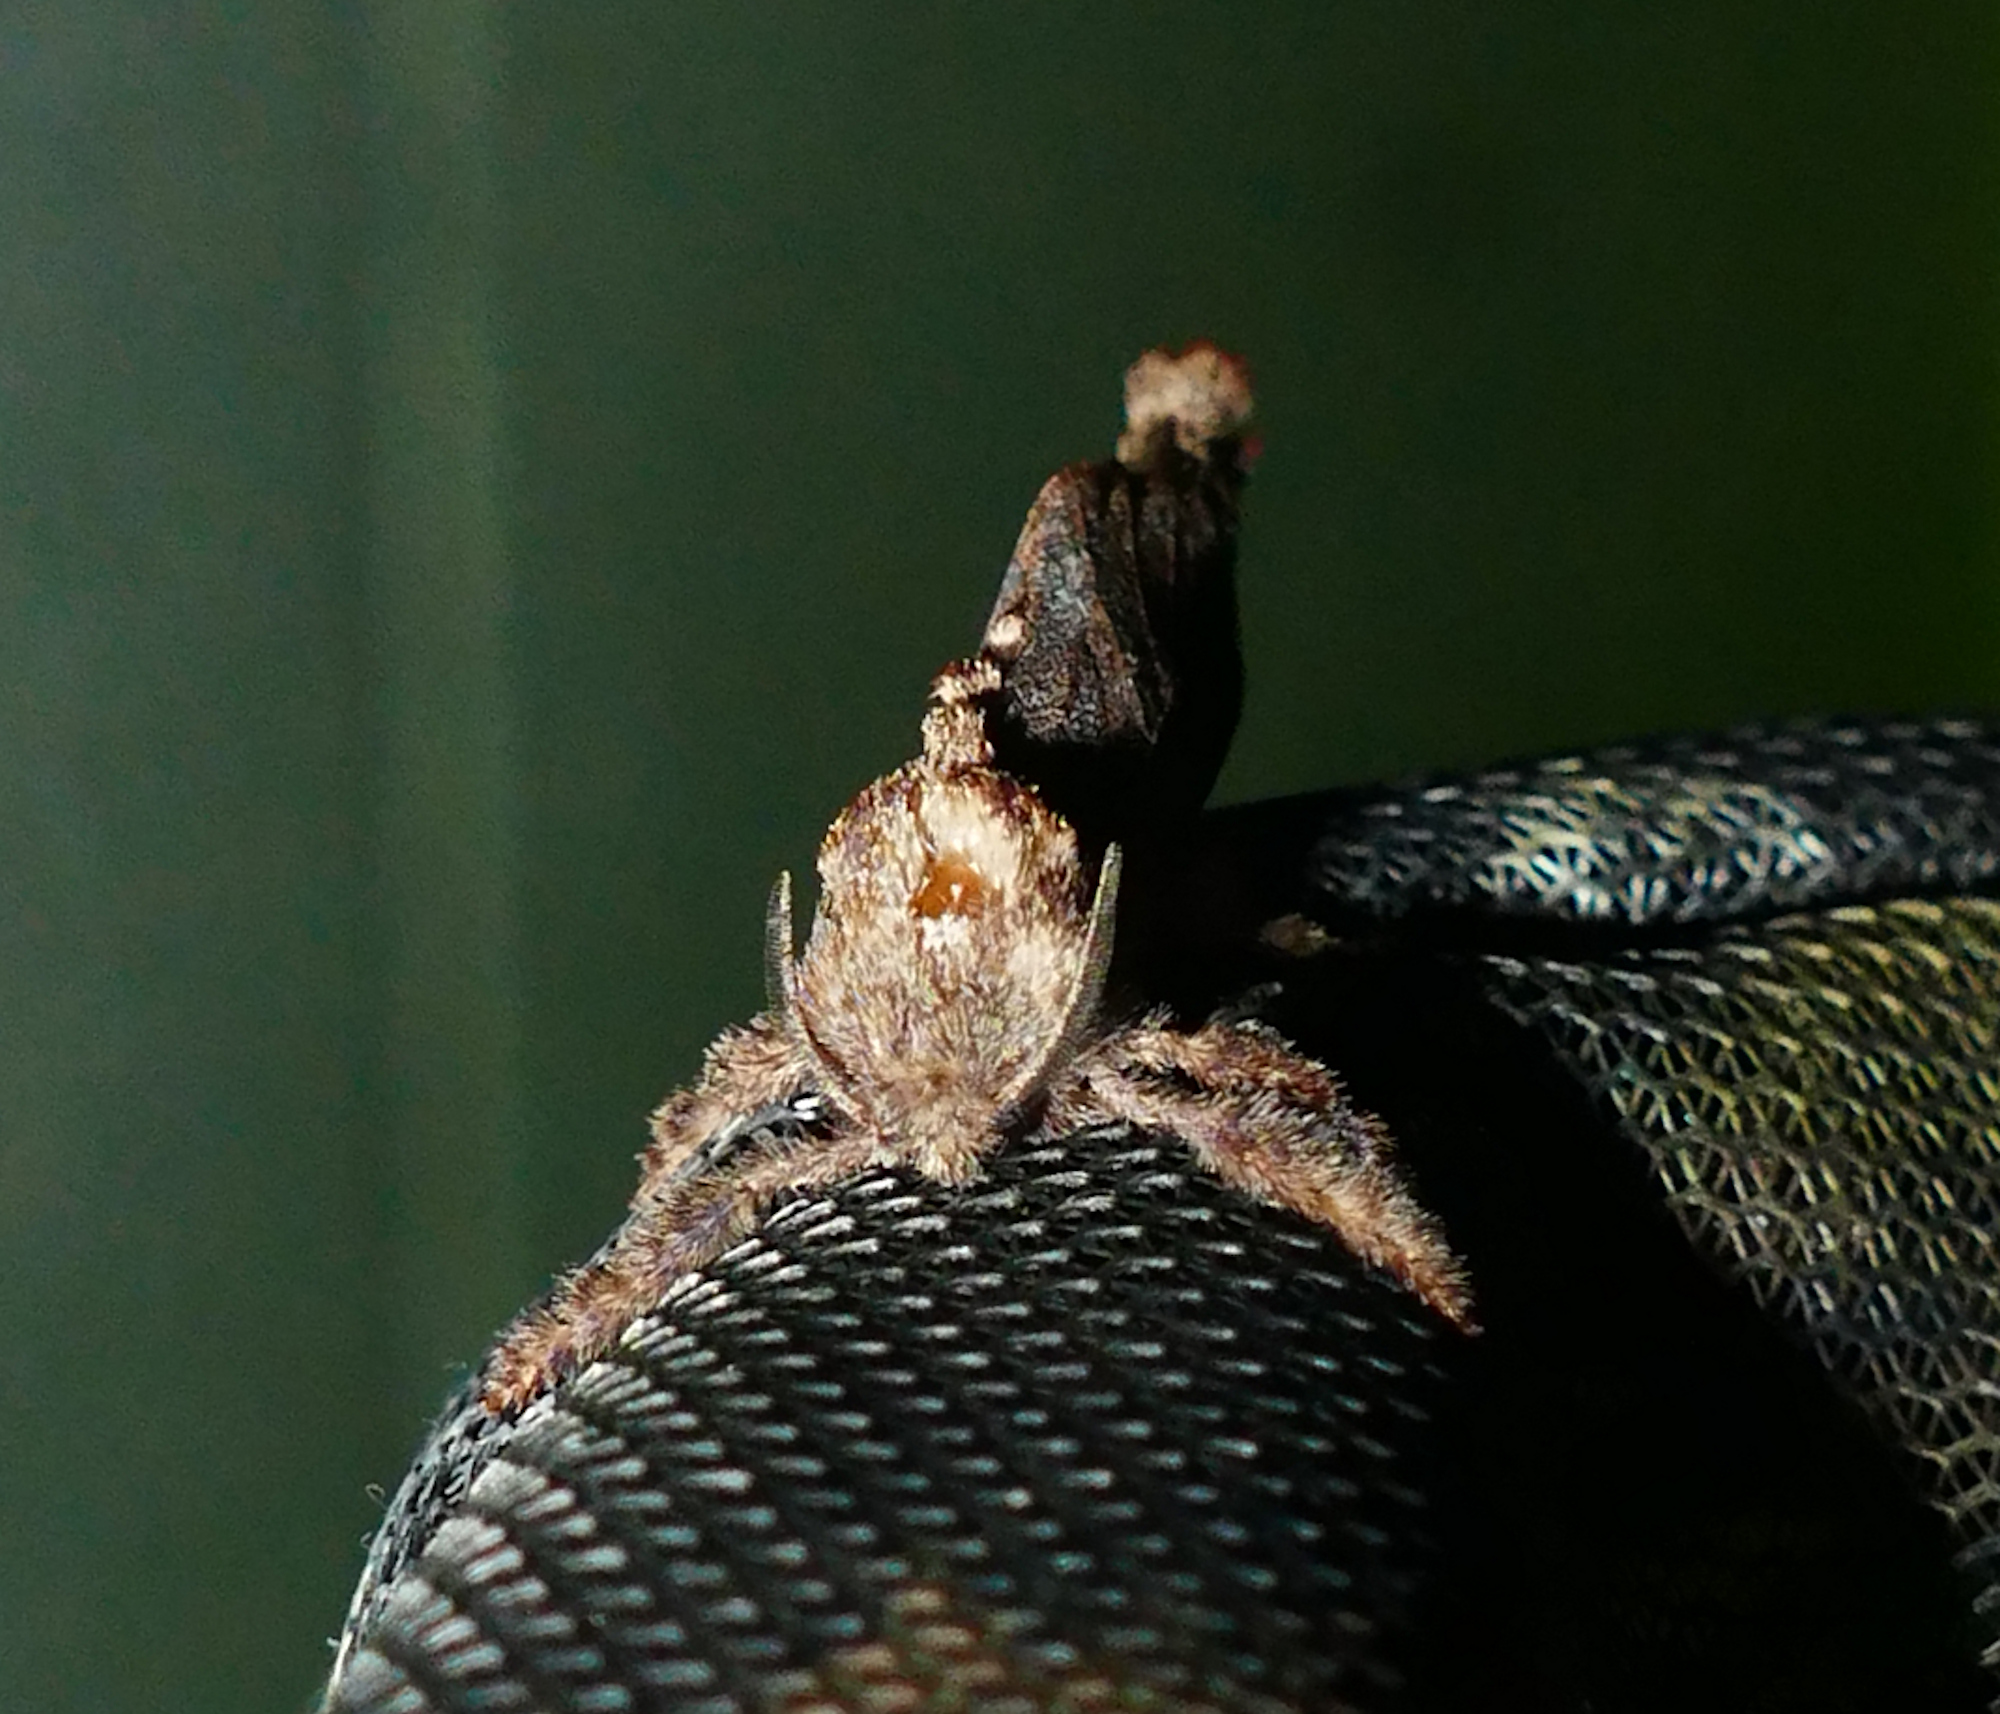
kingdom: Animalia
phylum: Arthropoda
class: Insecta
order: Lepidoptera
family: Cossidae
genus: Givira
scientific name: Givira arbeloides
